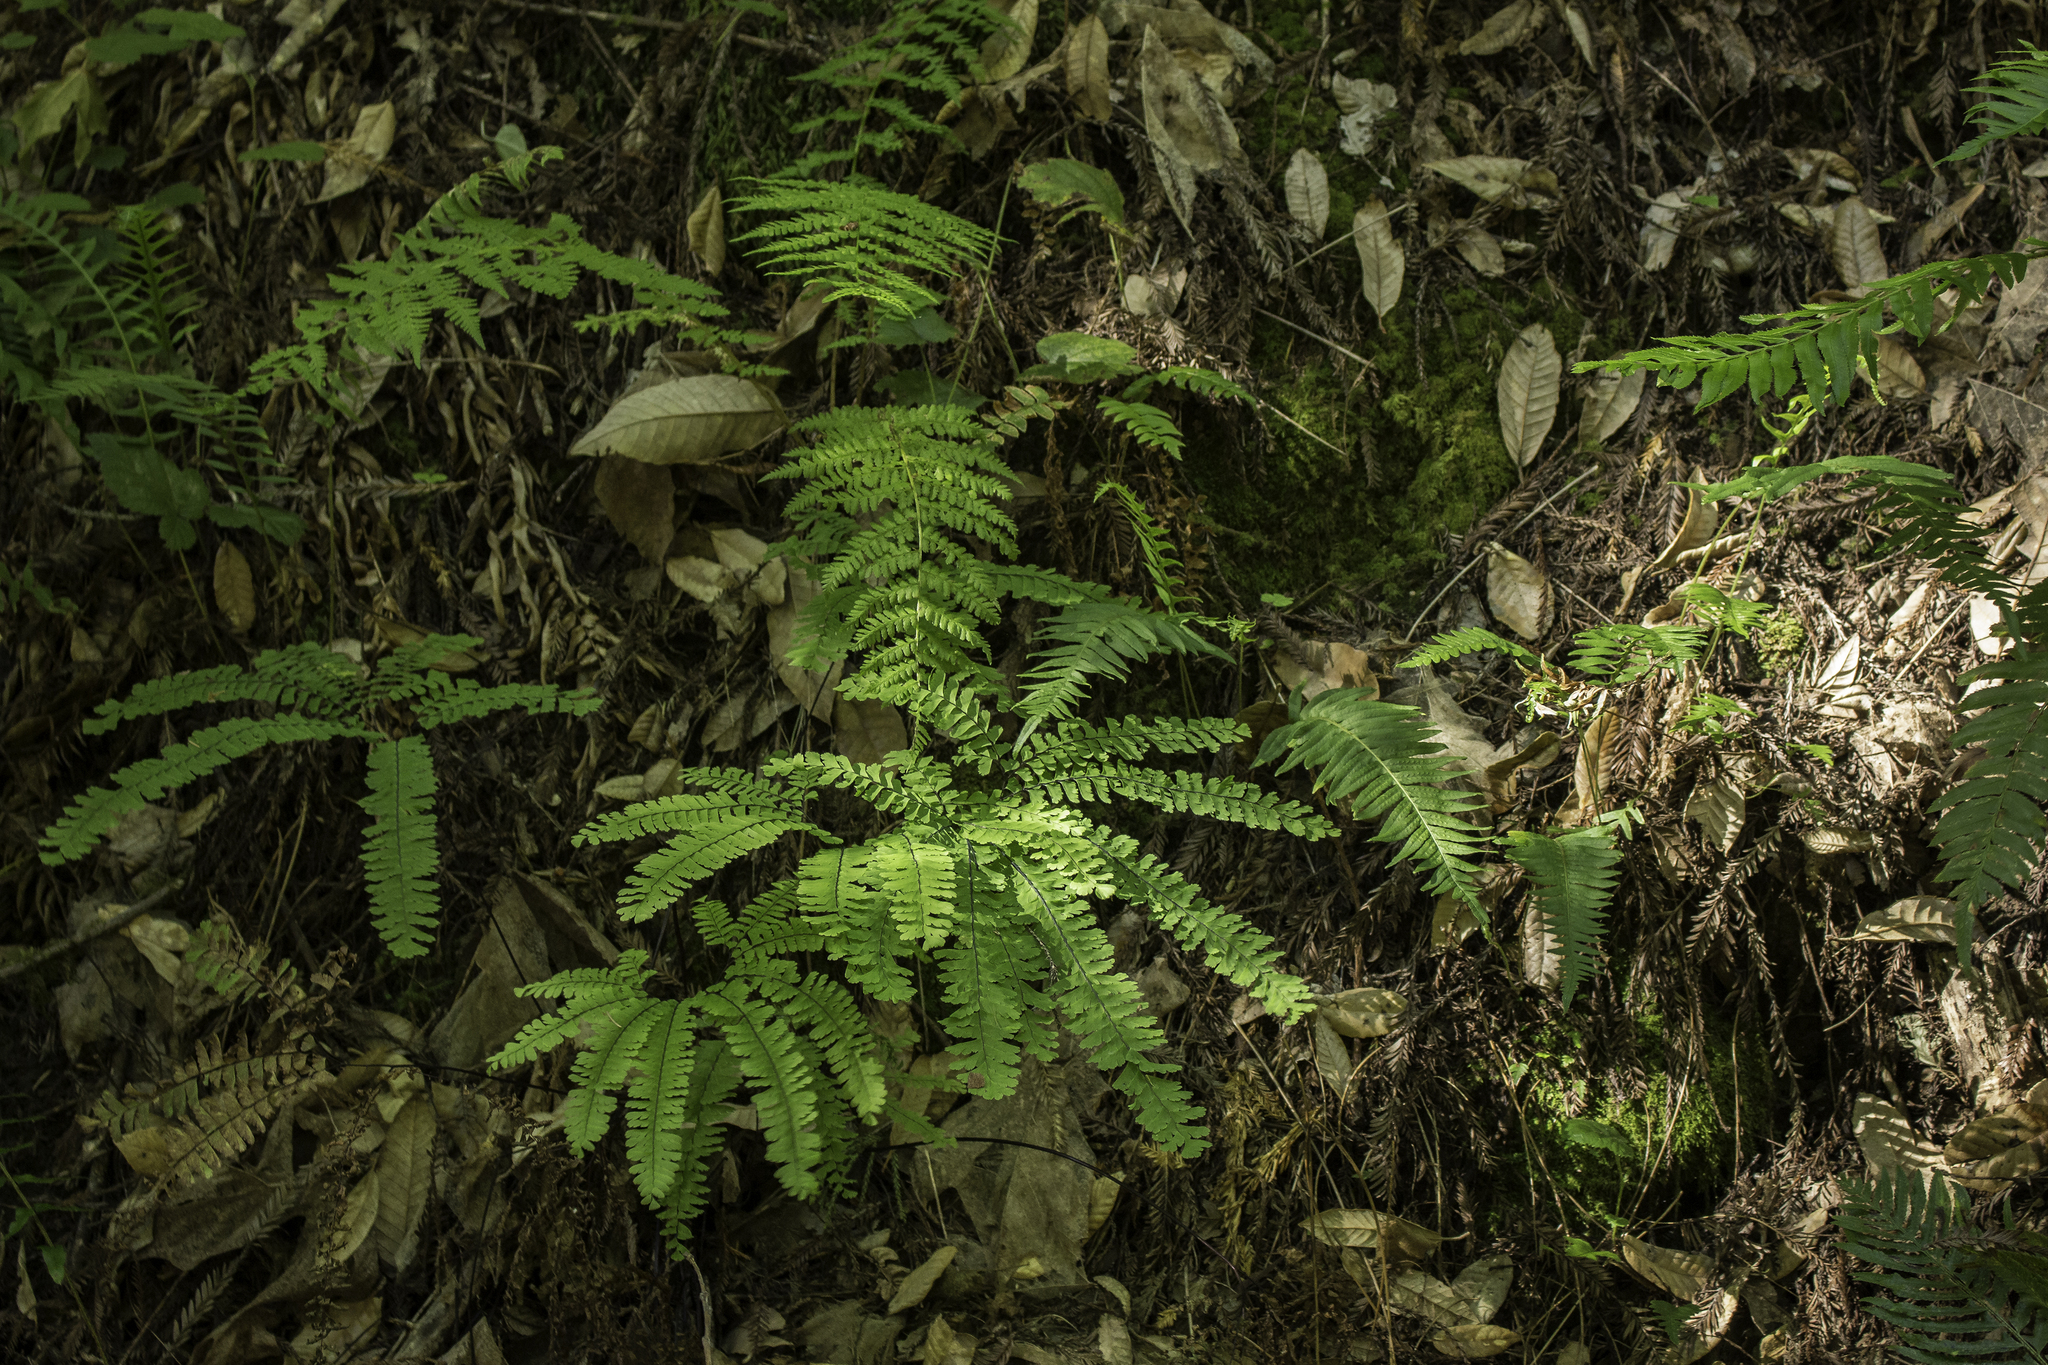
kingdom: Plantae
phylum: Tracheophyta
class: Polypodiopsida
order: Polypodiales
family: Pteridaceae
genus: Adiantum
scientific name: Adiantum aleuticum
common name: Aleutian maidenhair fern
